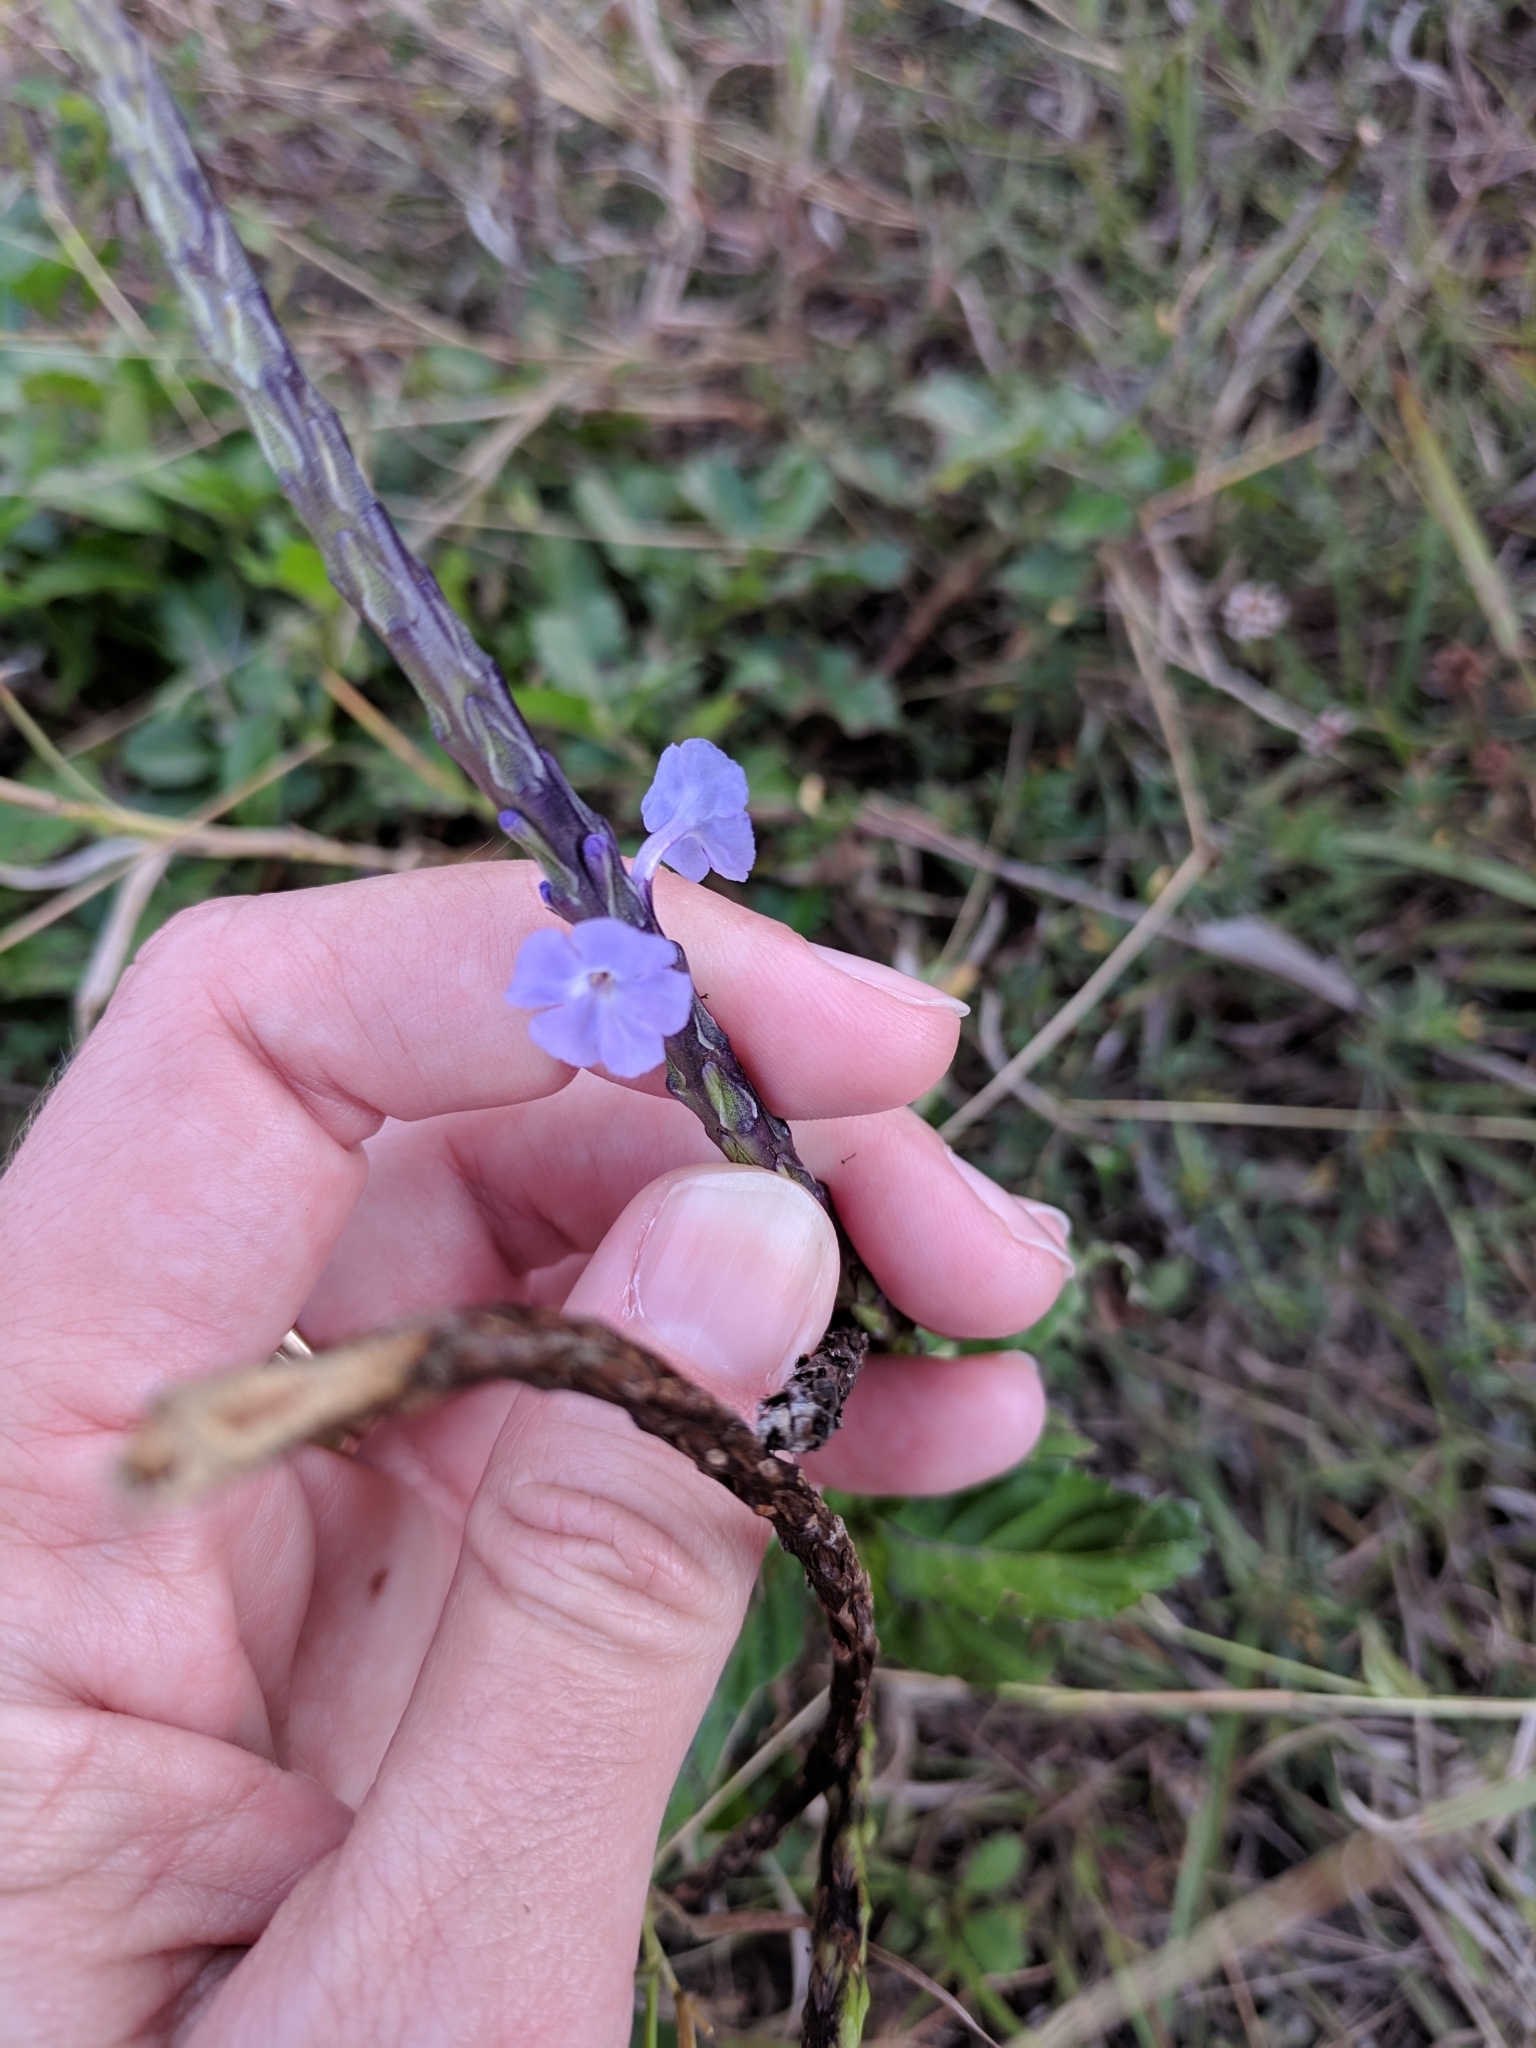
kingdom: Plantae
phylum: Tracheophyta
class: Magnoliopsida
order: Lamiales
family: Verbenaceae
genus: Stachytarpheta
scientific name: Stachytarpheta jamaicensis
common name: Light-blue snakeweed
